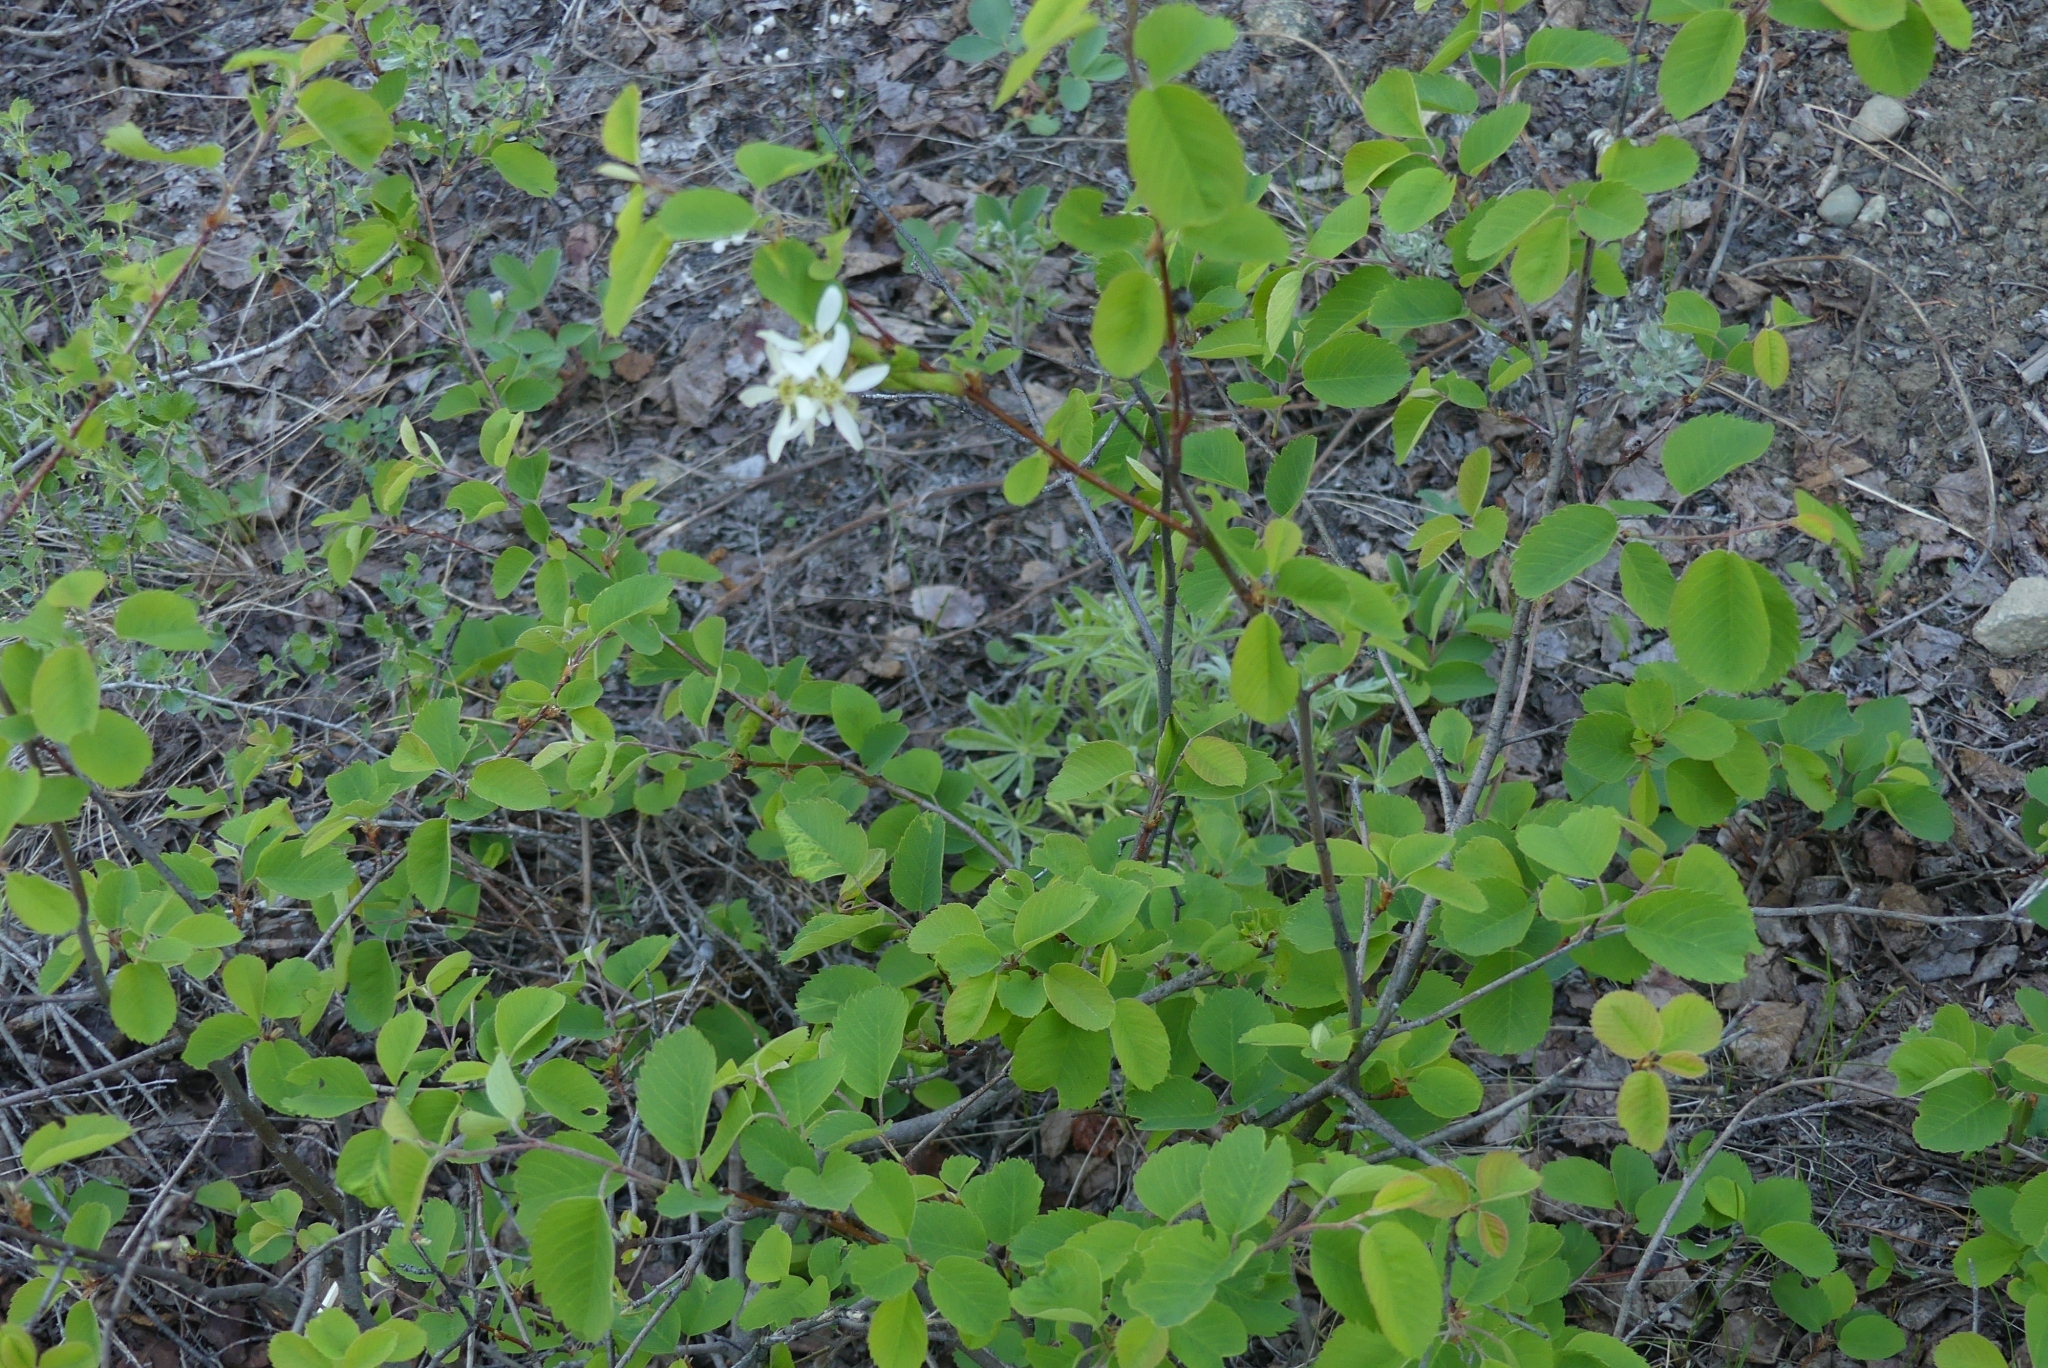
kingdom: Plantae
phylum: Tracheophyta
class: Magnoliopsida
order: Rosales
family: Rosaceae
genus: Amelanchier
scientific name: Amelanchier alnifolia
